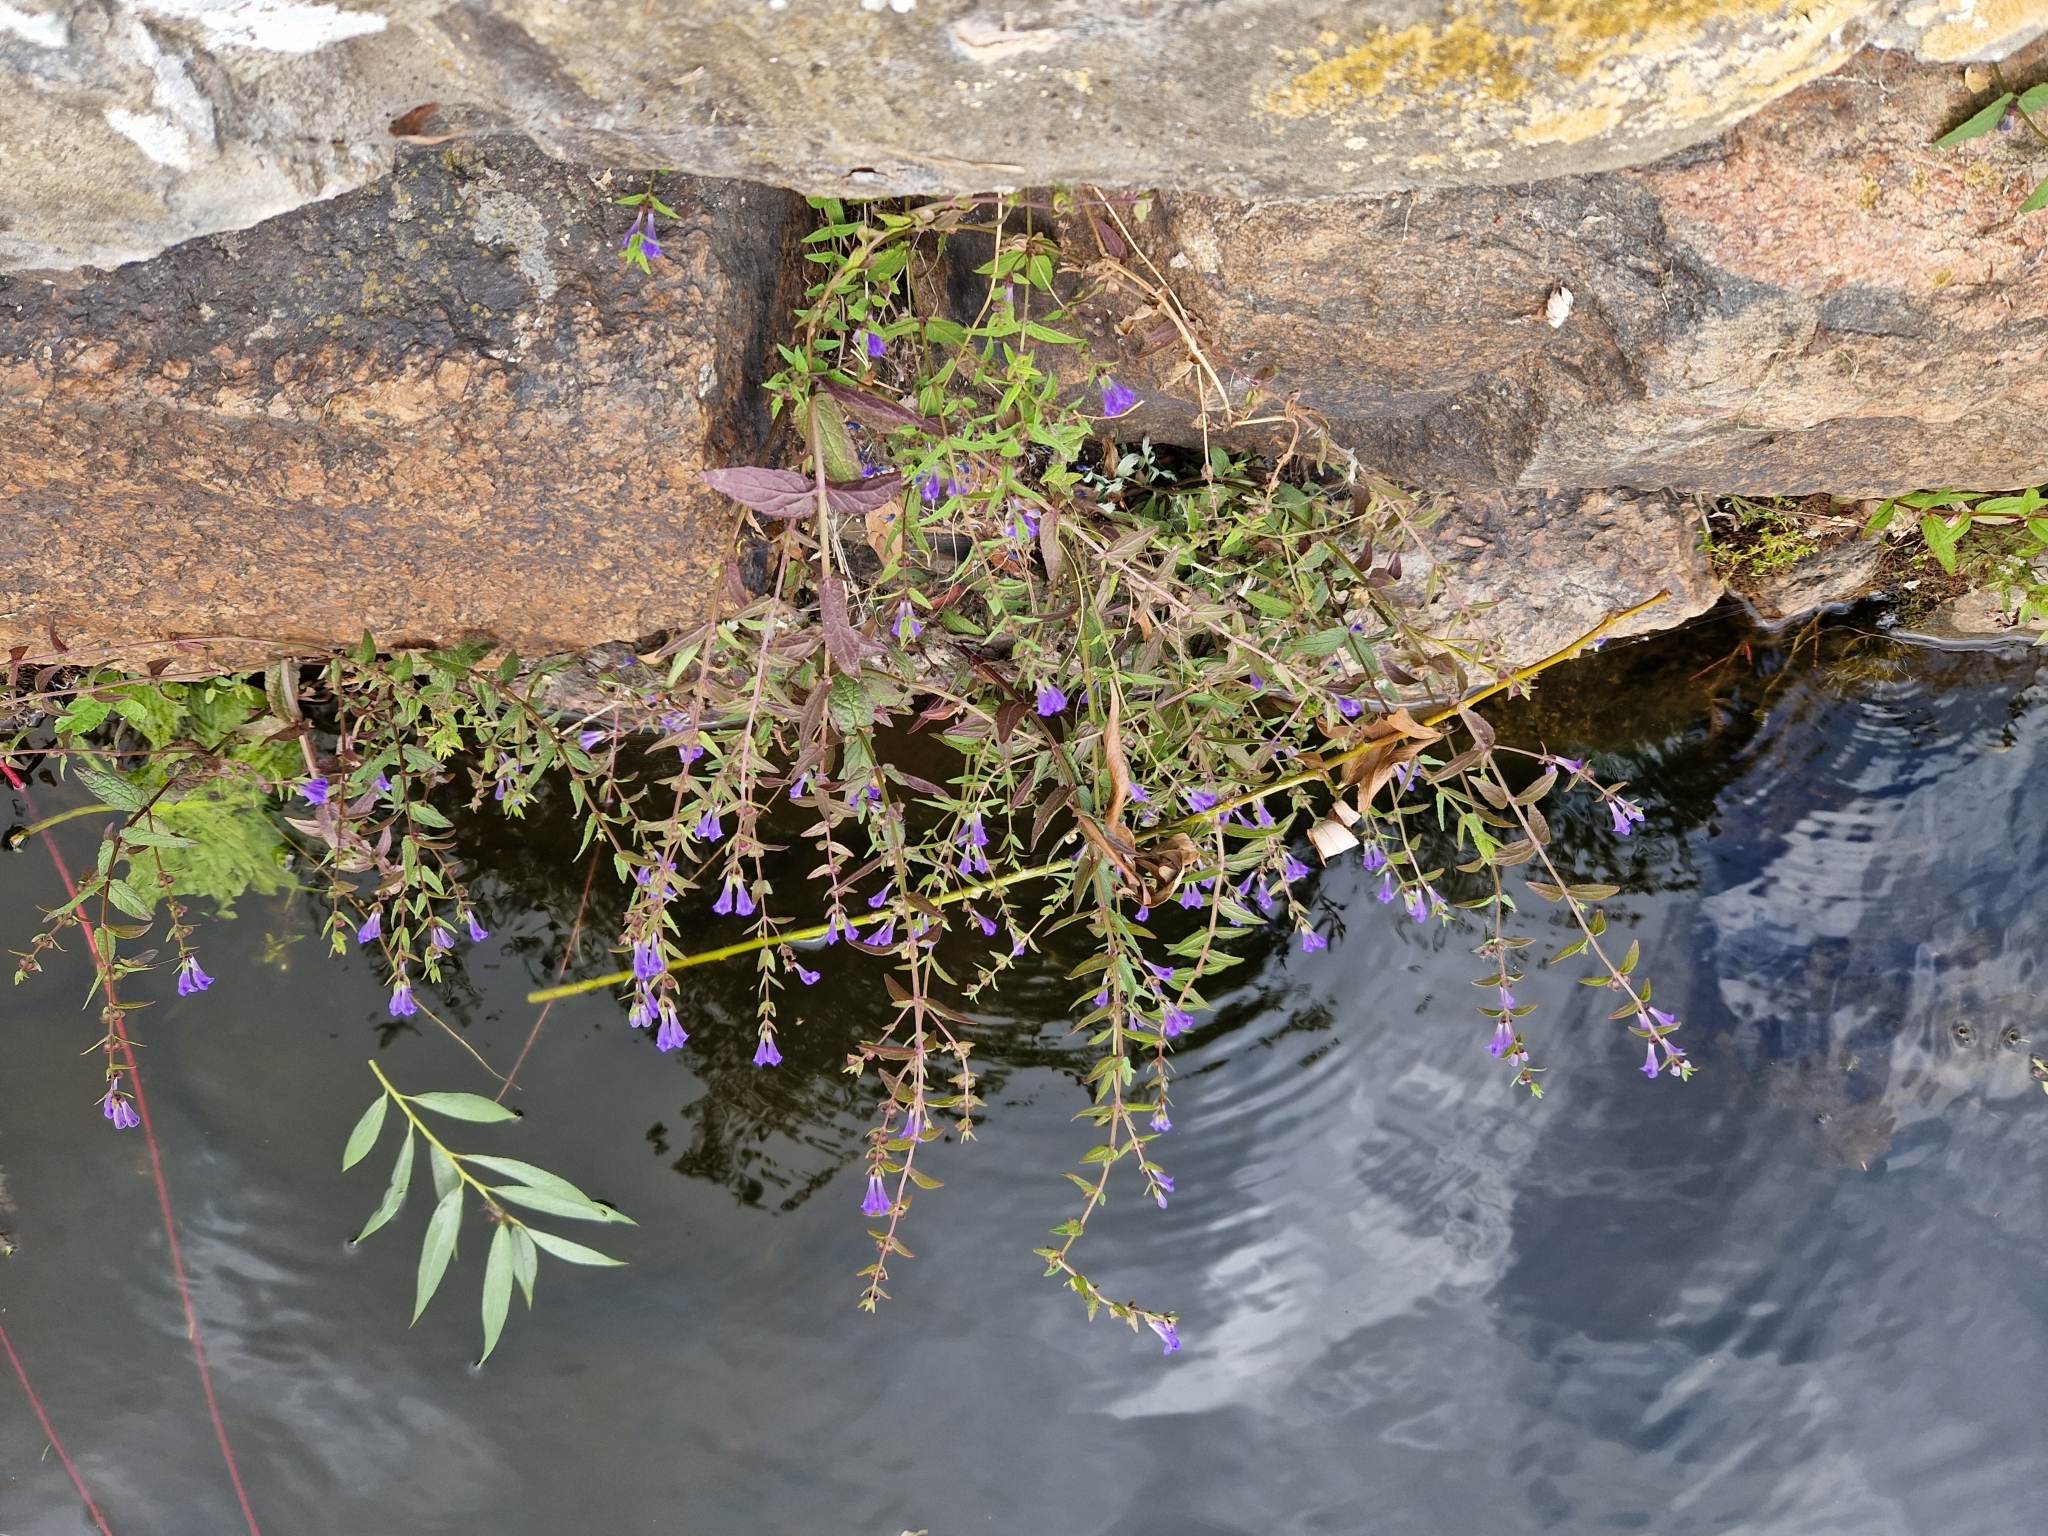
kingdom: Plantae
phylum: Tracheophyta
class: Magnoliopsida
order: Lamiales
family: Lamiaceae
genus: Scutellaria
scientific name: Scutellaria galericulata
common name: Skullcap
